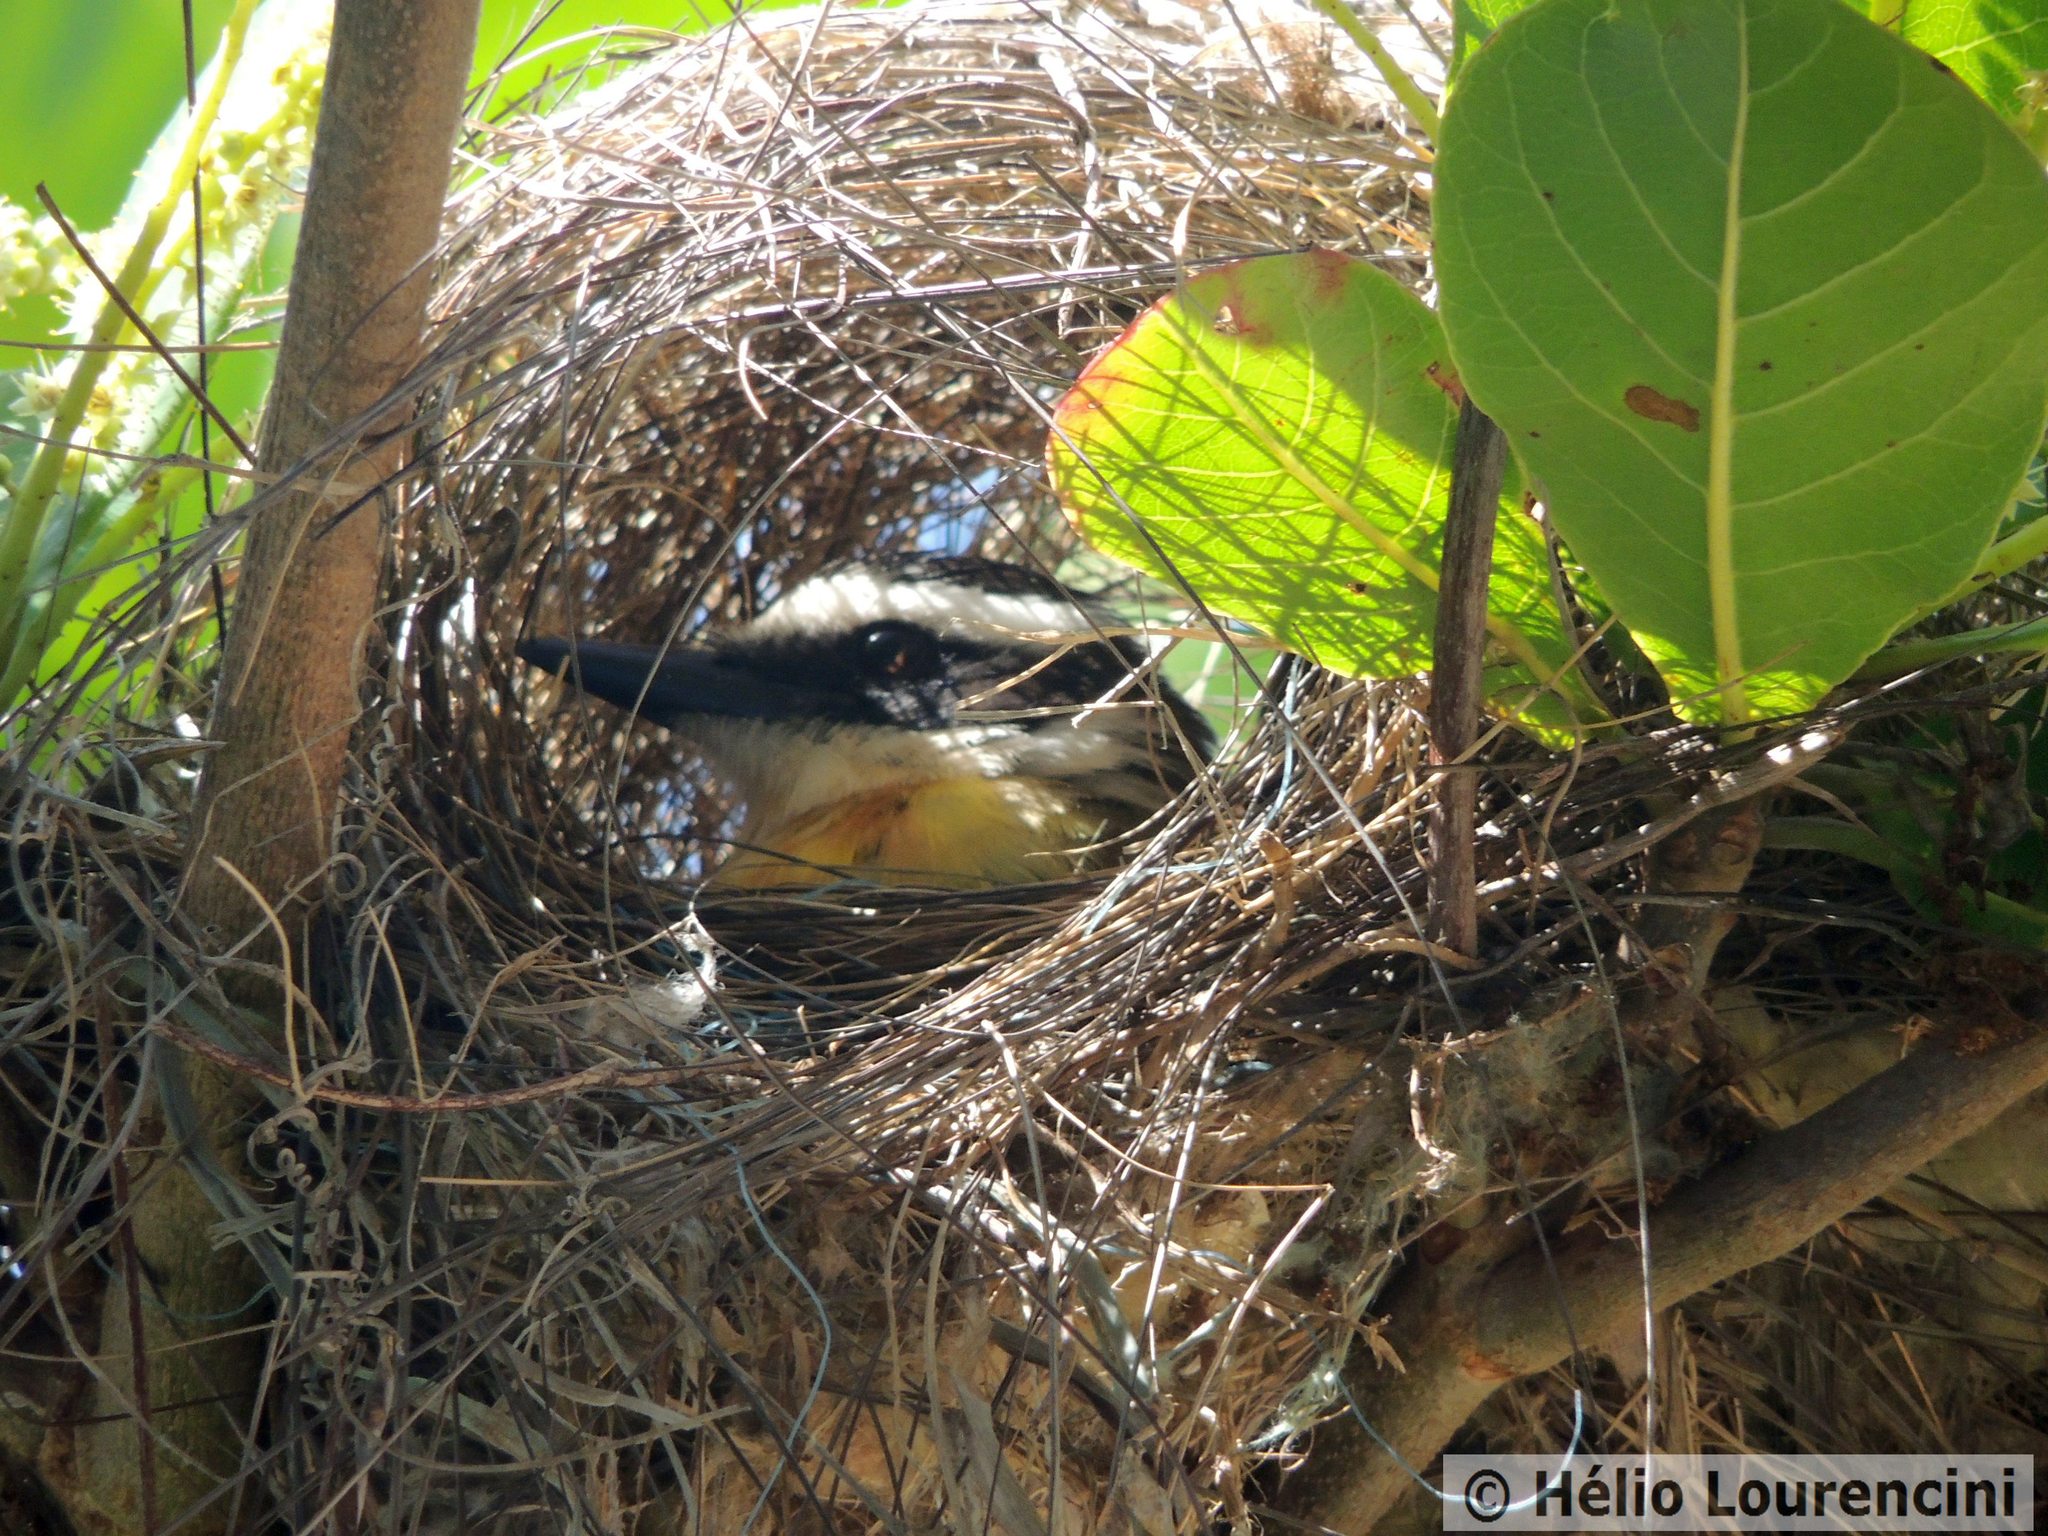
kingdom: Animalia
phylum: Chordata
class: Aves
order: Passeriformes
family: Tyrannidae
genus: Pitangus
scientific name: Pitangus sulphuratus
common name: Great kiskadee
